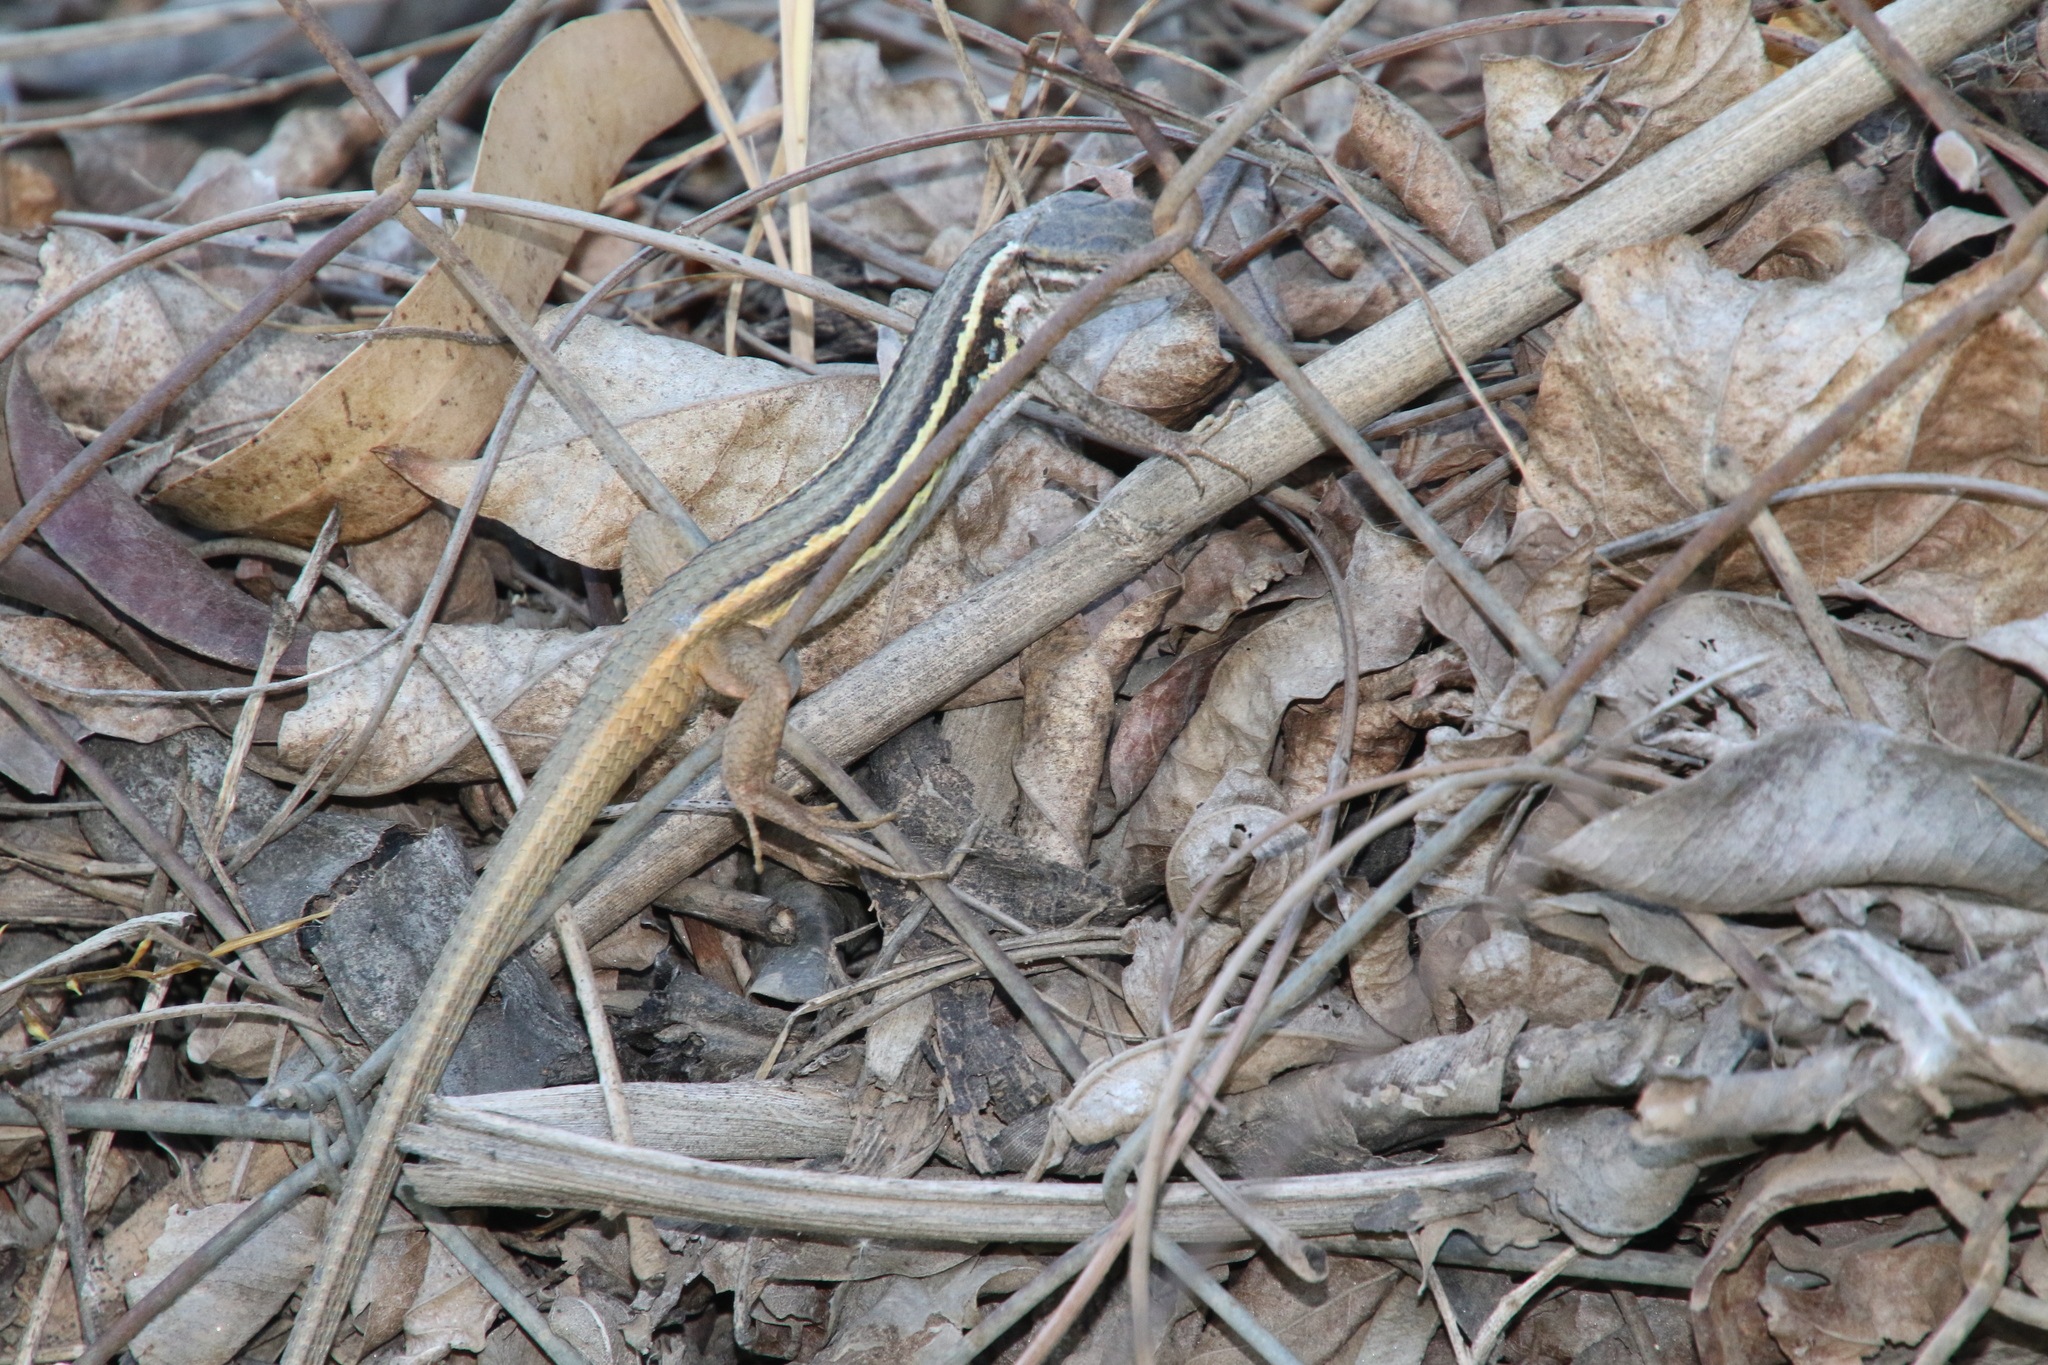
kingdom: Animalia
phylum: Chordata
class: Squamata
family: Lacertidae
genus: Psammodromus
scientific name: Psammodromus algirus
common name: Algerian psammodromus
